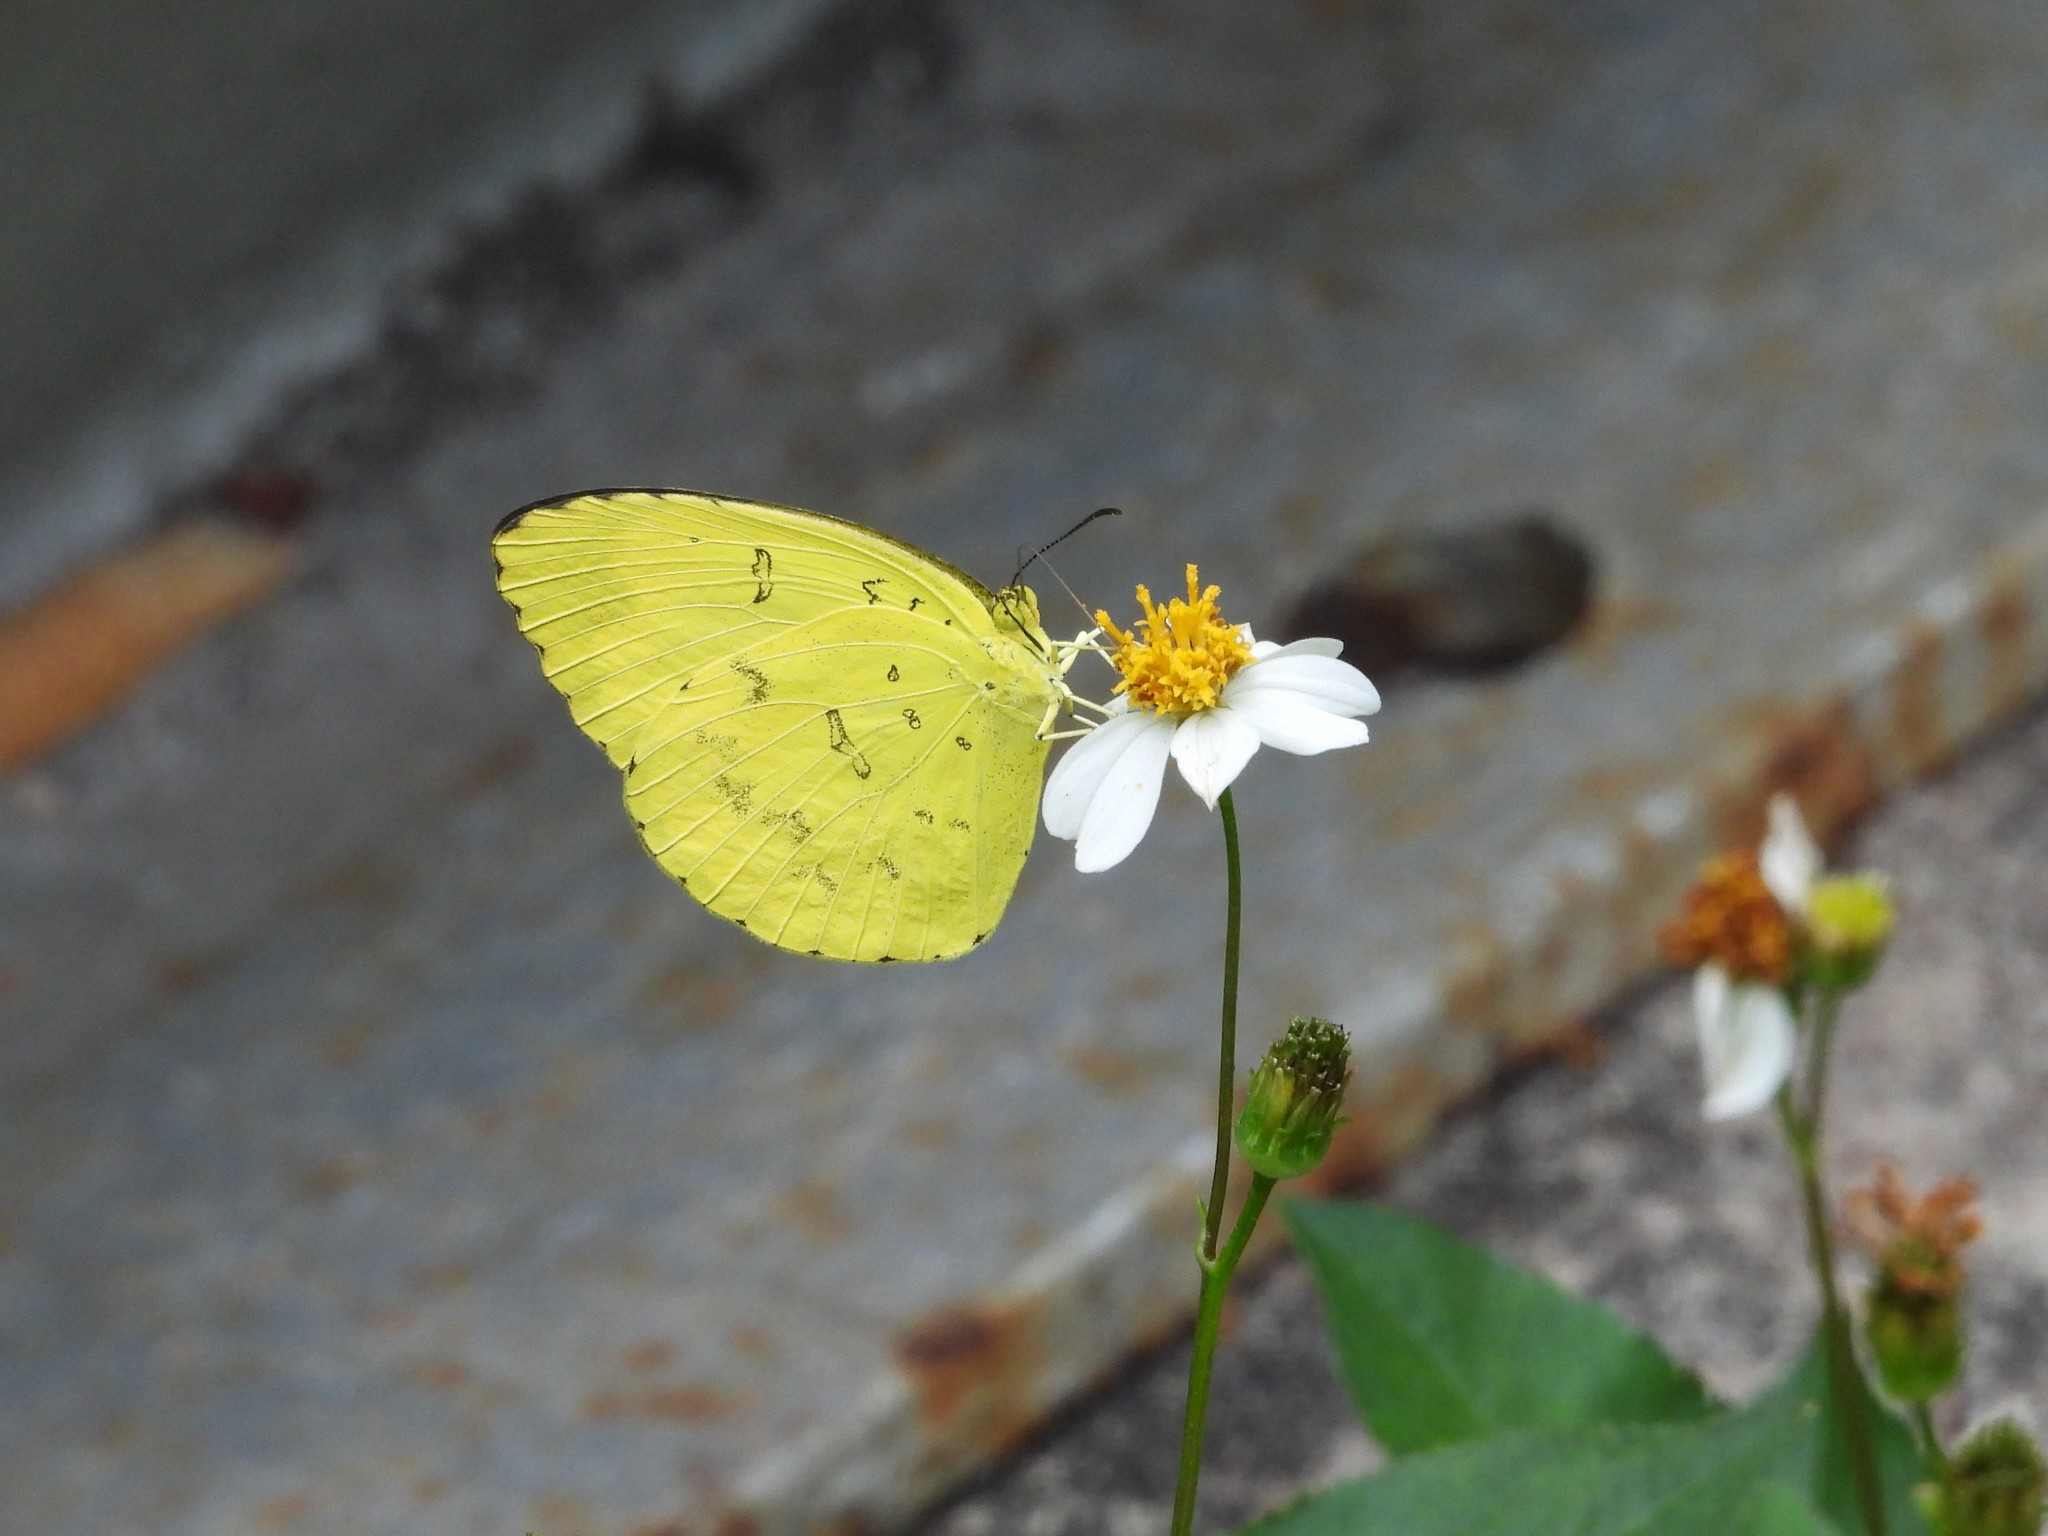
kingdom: Animalia
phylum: Arthropoda
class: Insecta
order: Lepidoptera
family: Pieridae
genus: Eurema
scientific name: Eurema blanda
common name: Three-spot grass yellow
